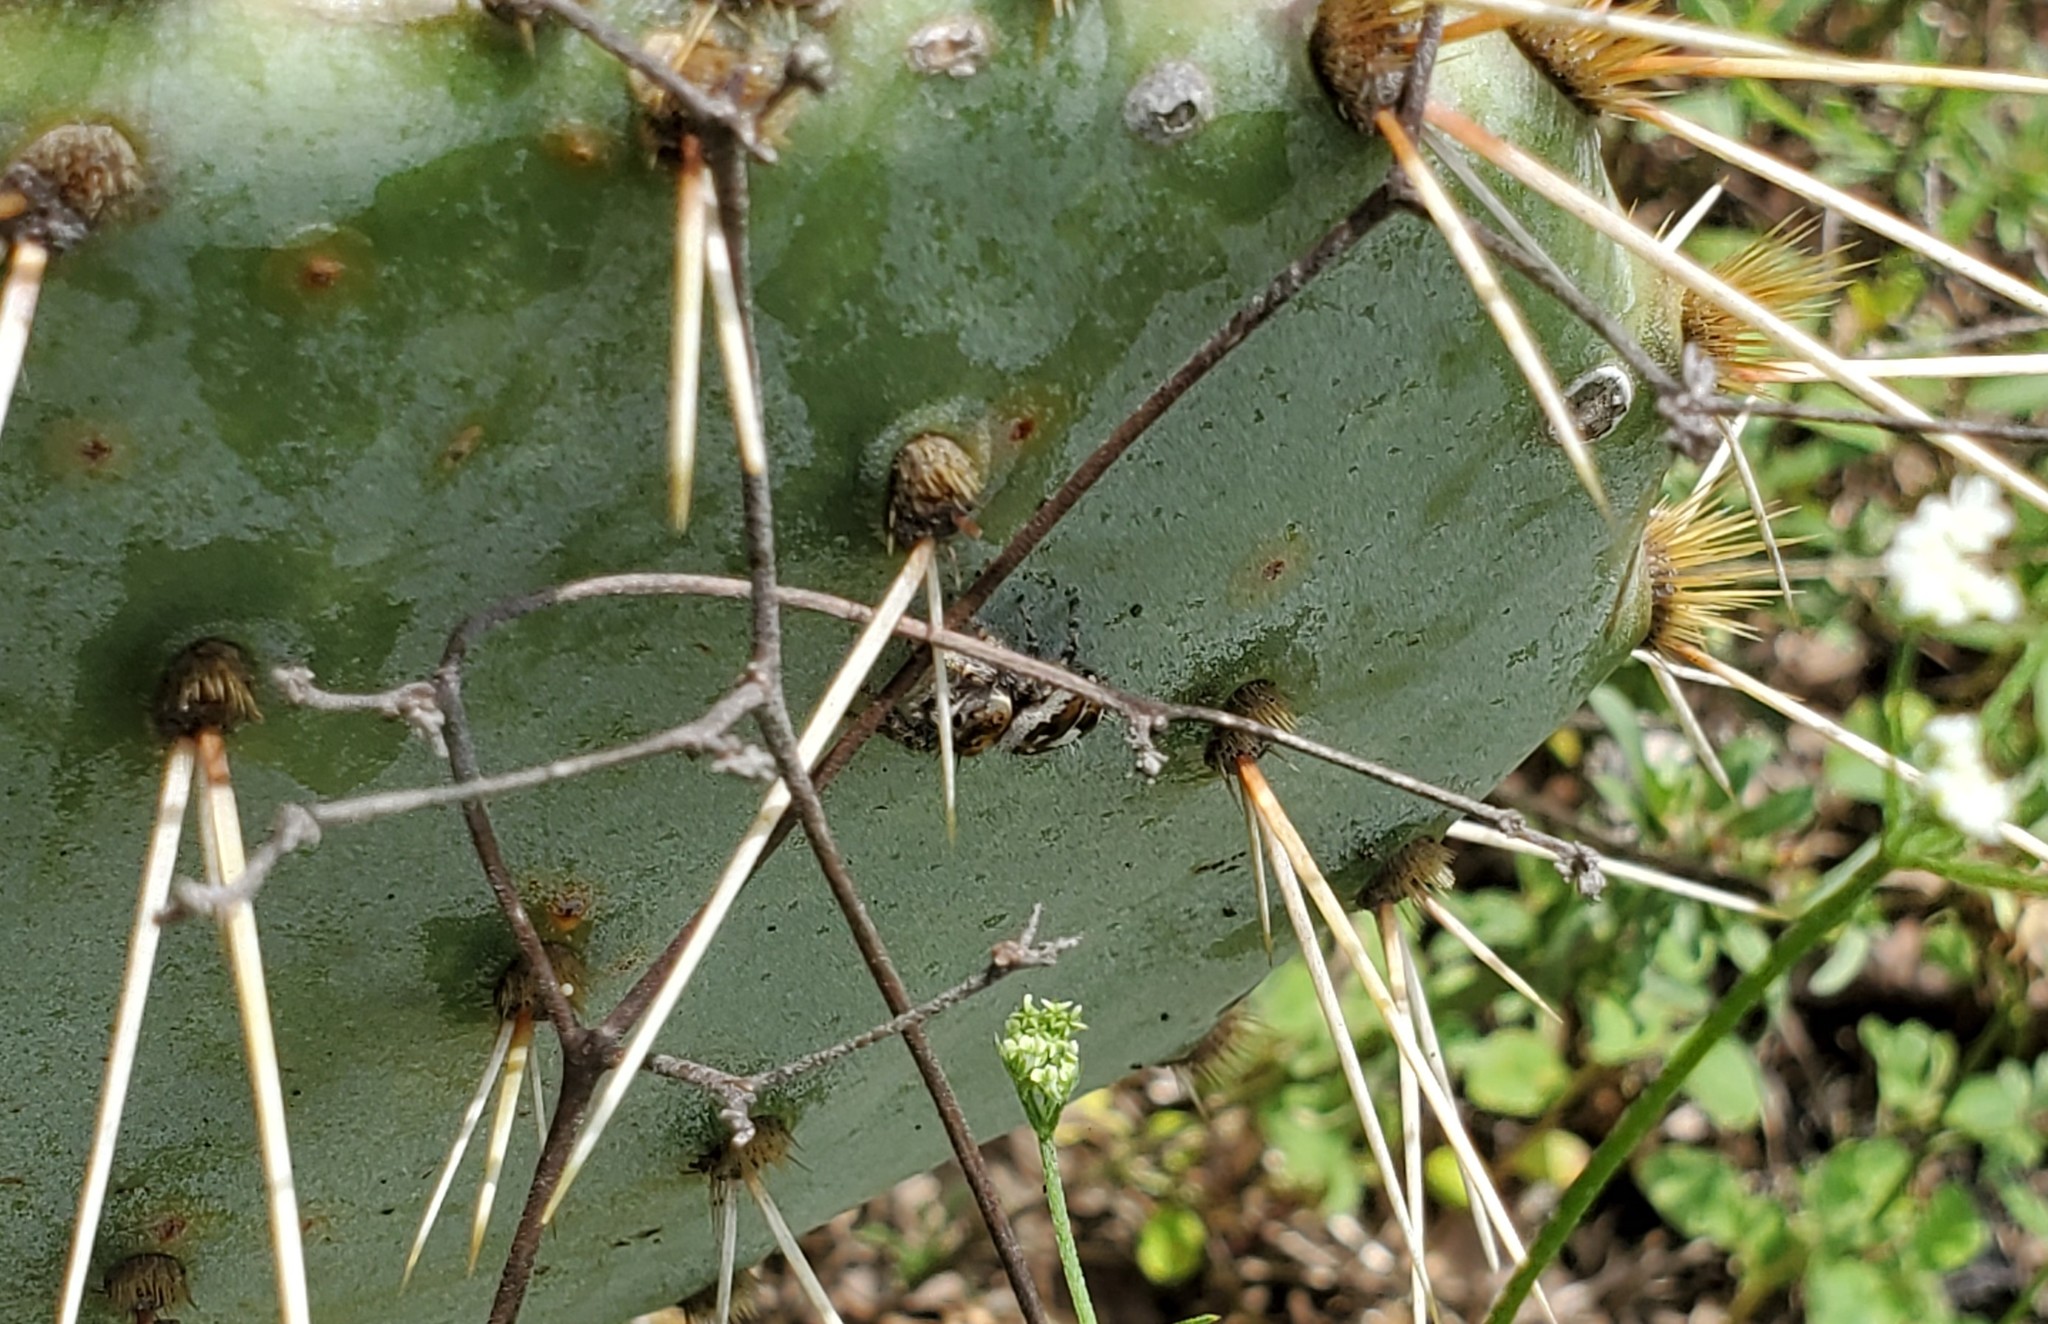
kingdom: Animalia
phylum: Arthropoda
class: Arachnida
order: Araneae
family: Salticidae
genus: Phidippus
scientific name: Phidippus carolinensis
